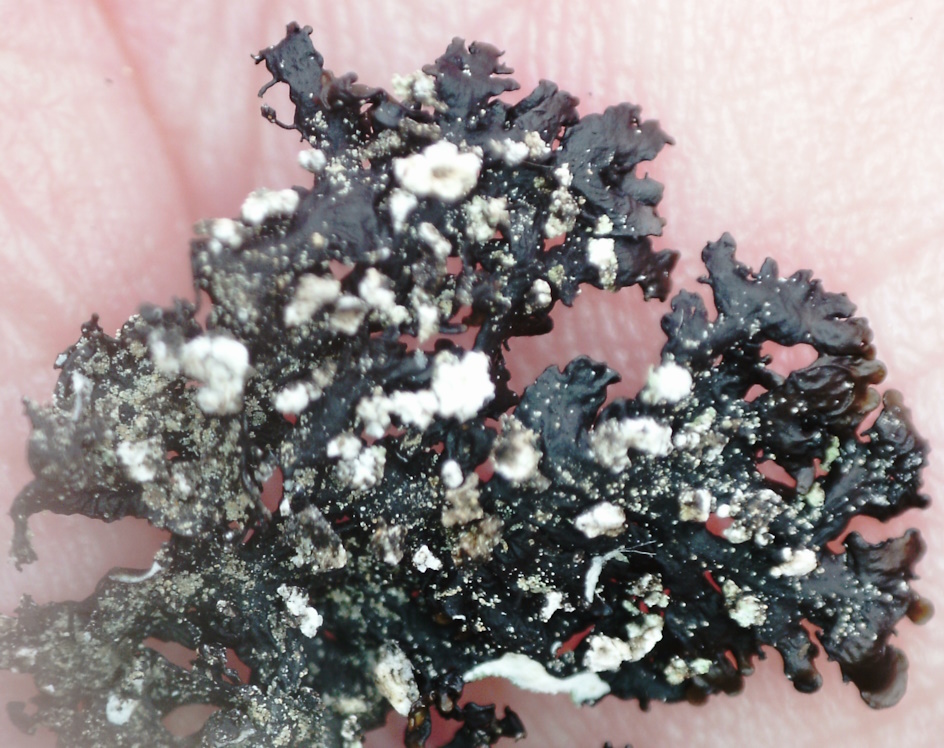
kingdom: Fungi
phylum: Ascomycota
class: Lecanoromycetes
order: Lecanorales
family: Parmeliaceae
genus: Melanelia
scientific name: Melanelia hepatizon
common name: Rimmed camouflage lichen
